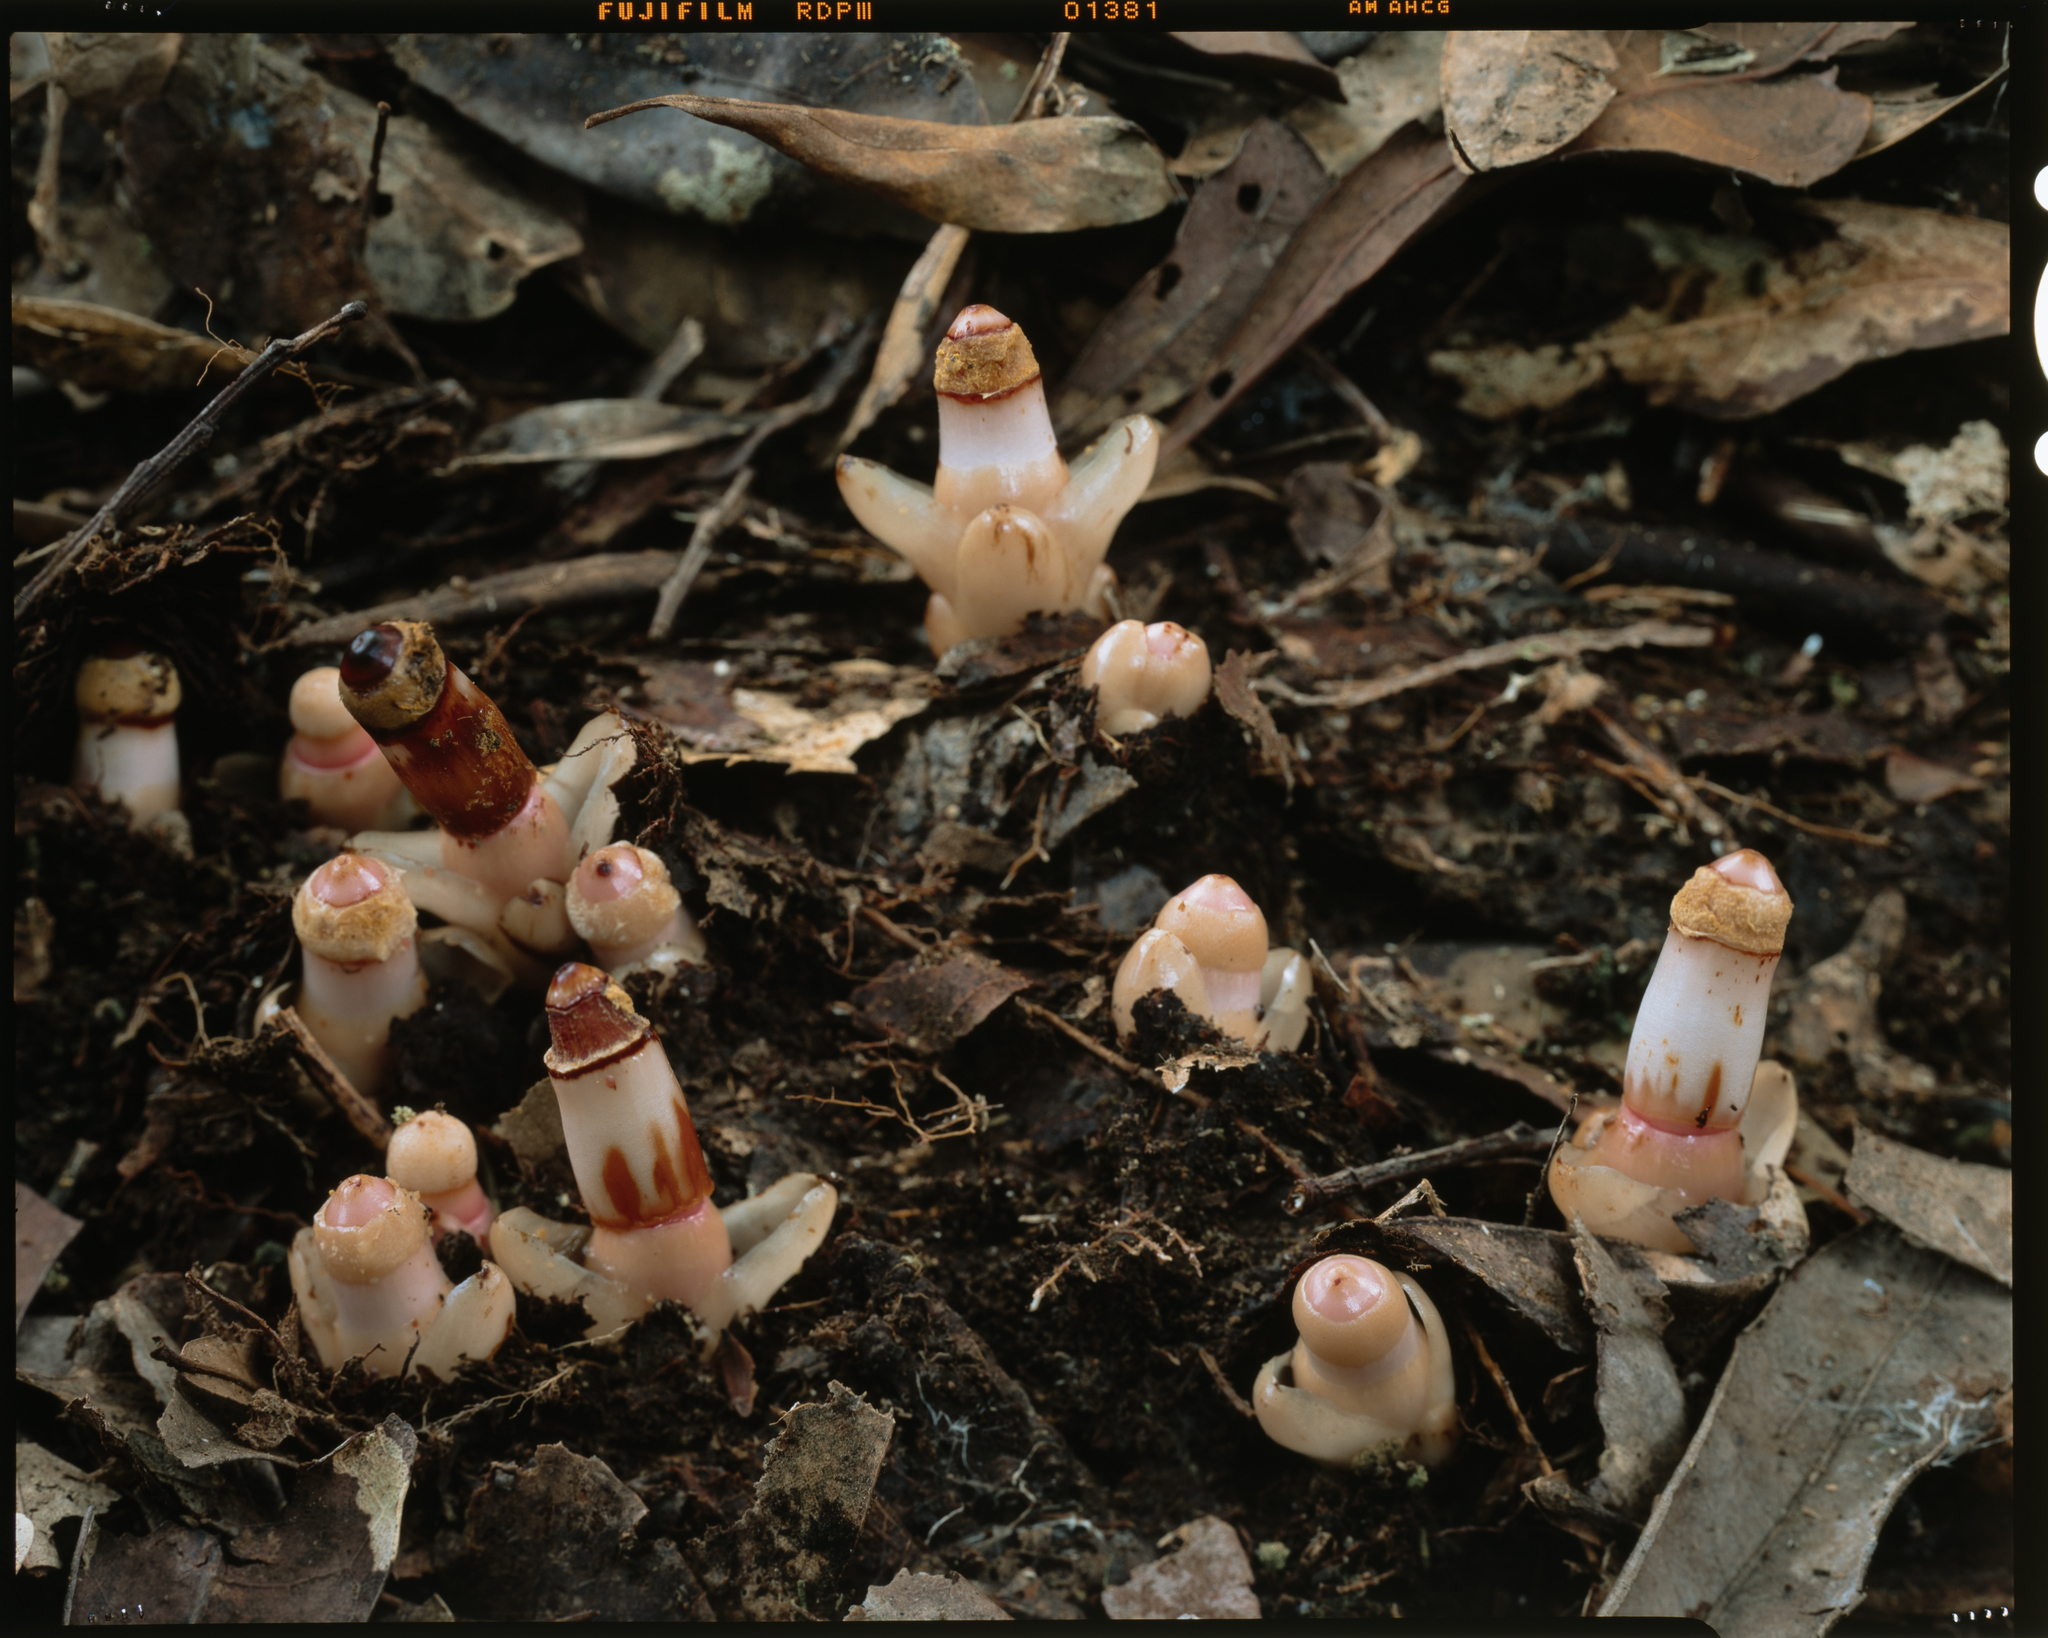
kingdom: Plantae
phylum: Tracheophyta
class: Magnoliopsida
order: Ericales
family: Mitrastemonaceae
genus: Mitrastemon
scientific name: Mitrastemon yamamotoi
